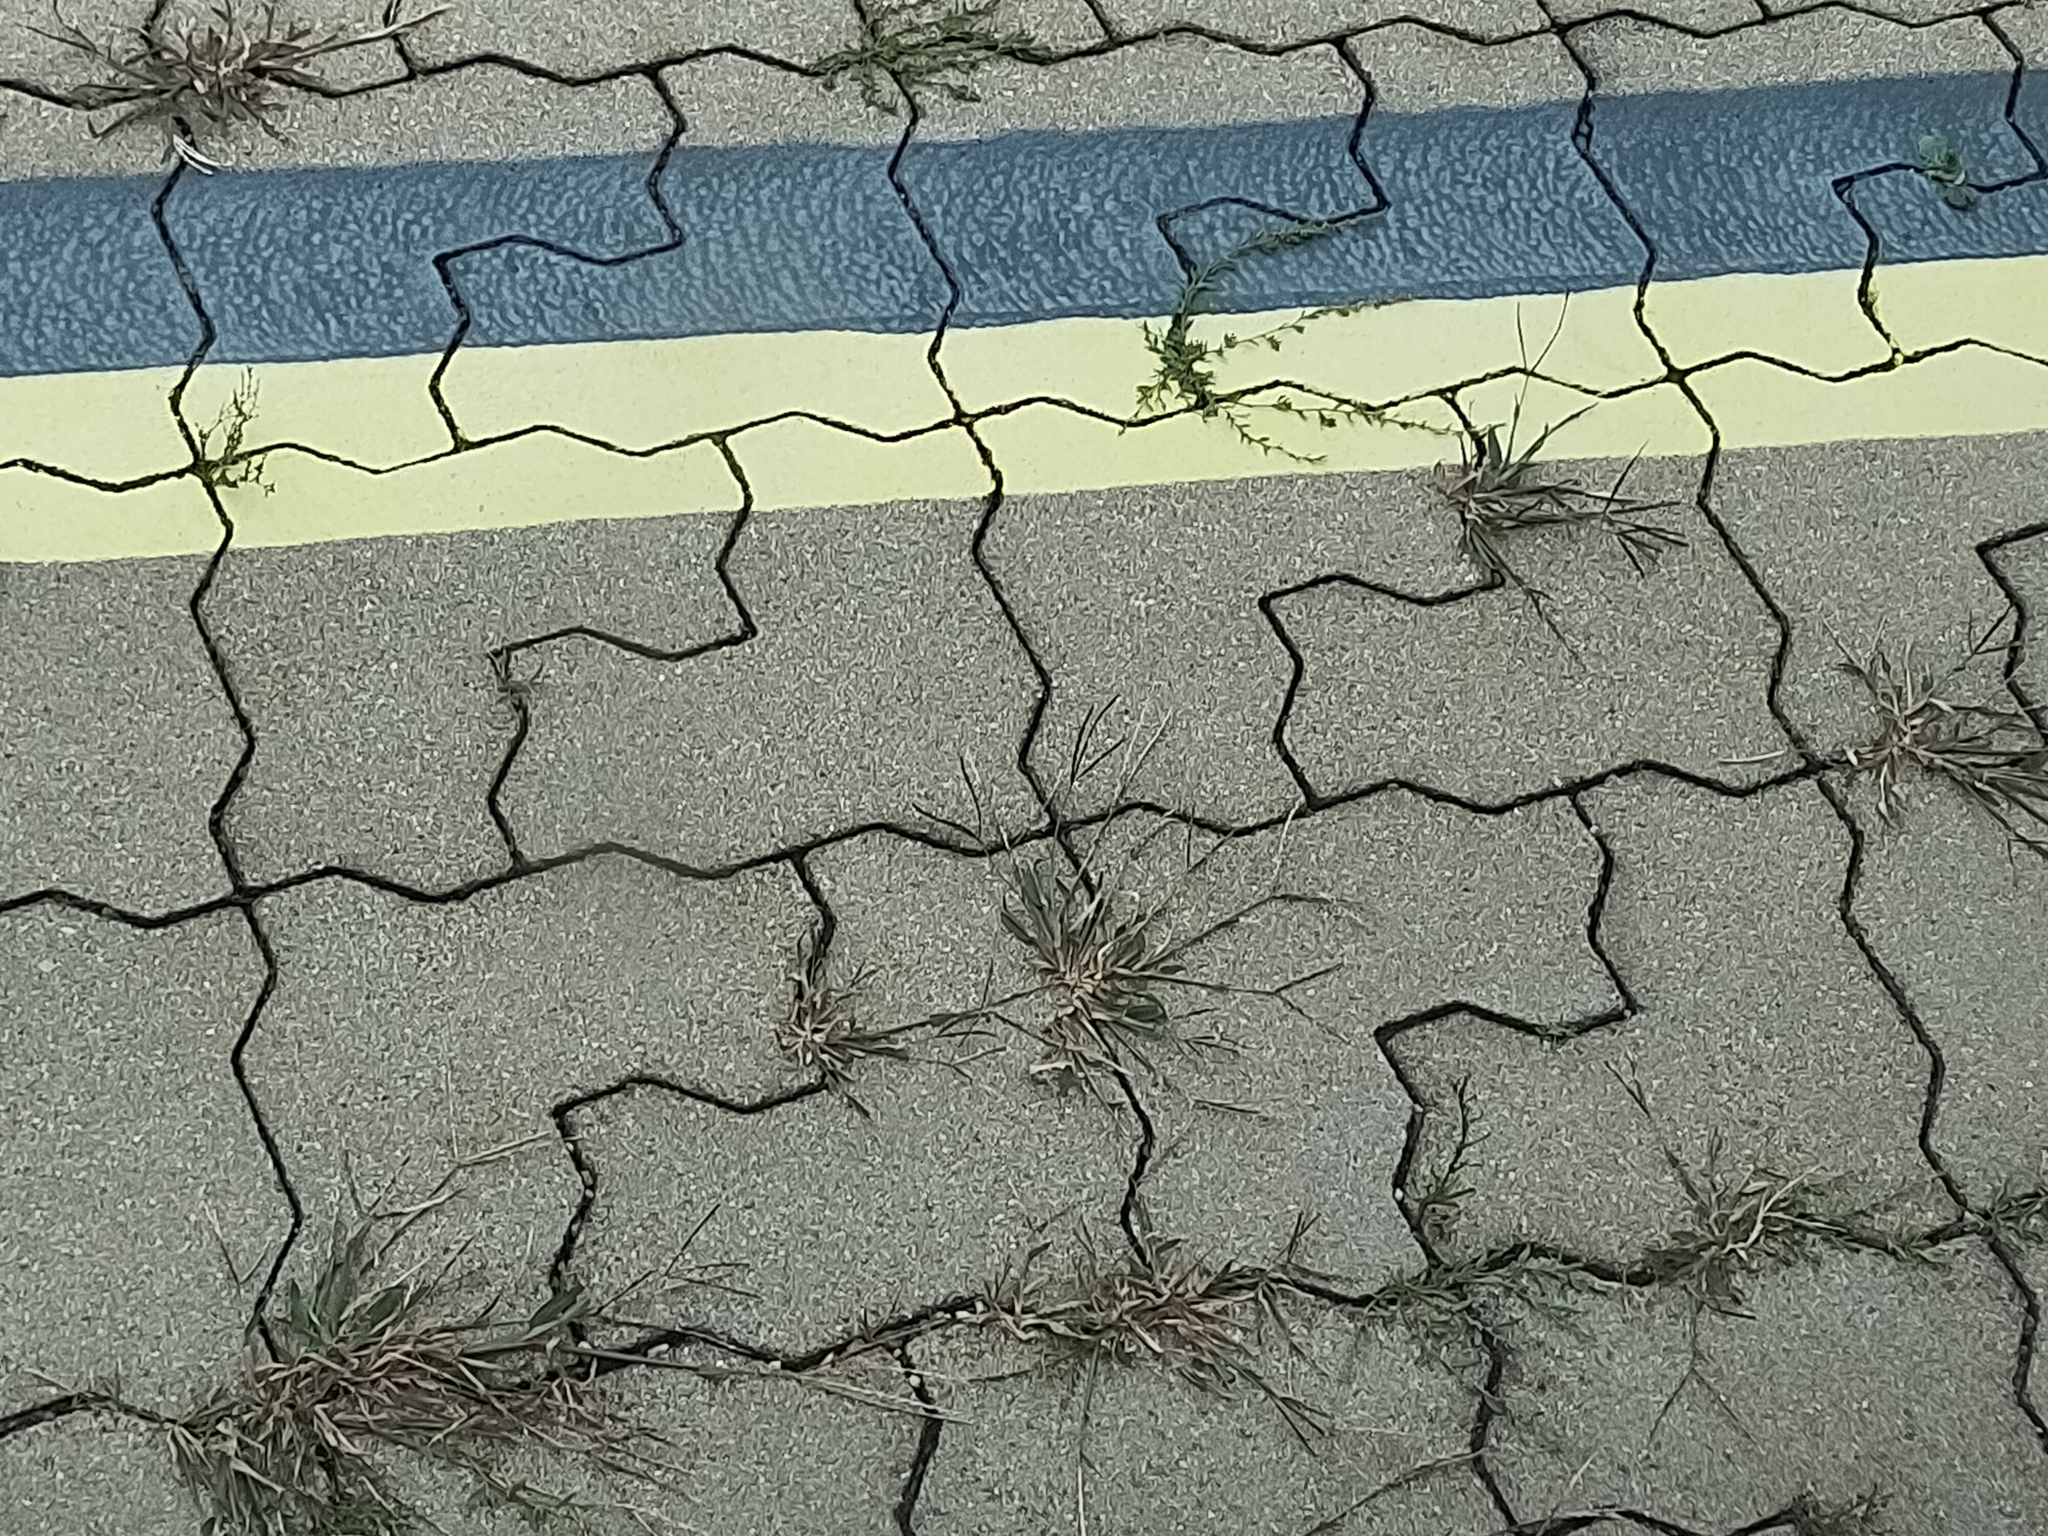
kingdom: Plantae
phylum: Tracheophyta
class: Liliopsida
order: Poales
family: Poaceae
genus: Digitaria
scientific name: Digitaria sanguinalis
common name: Hairy crabgrass
